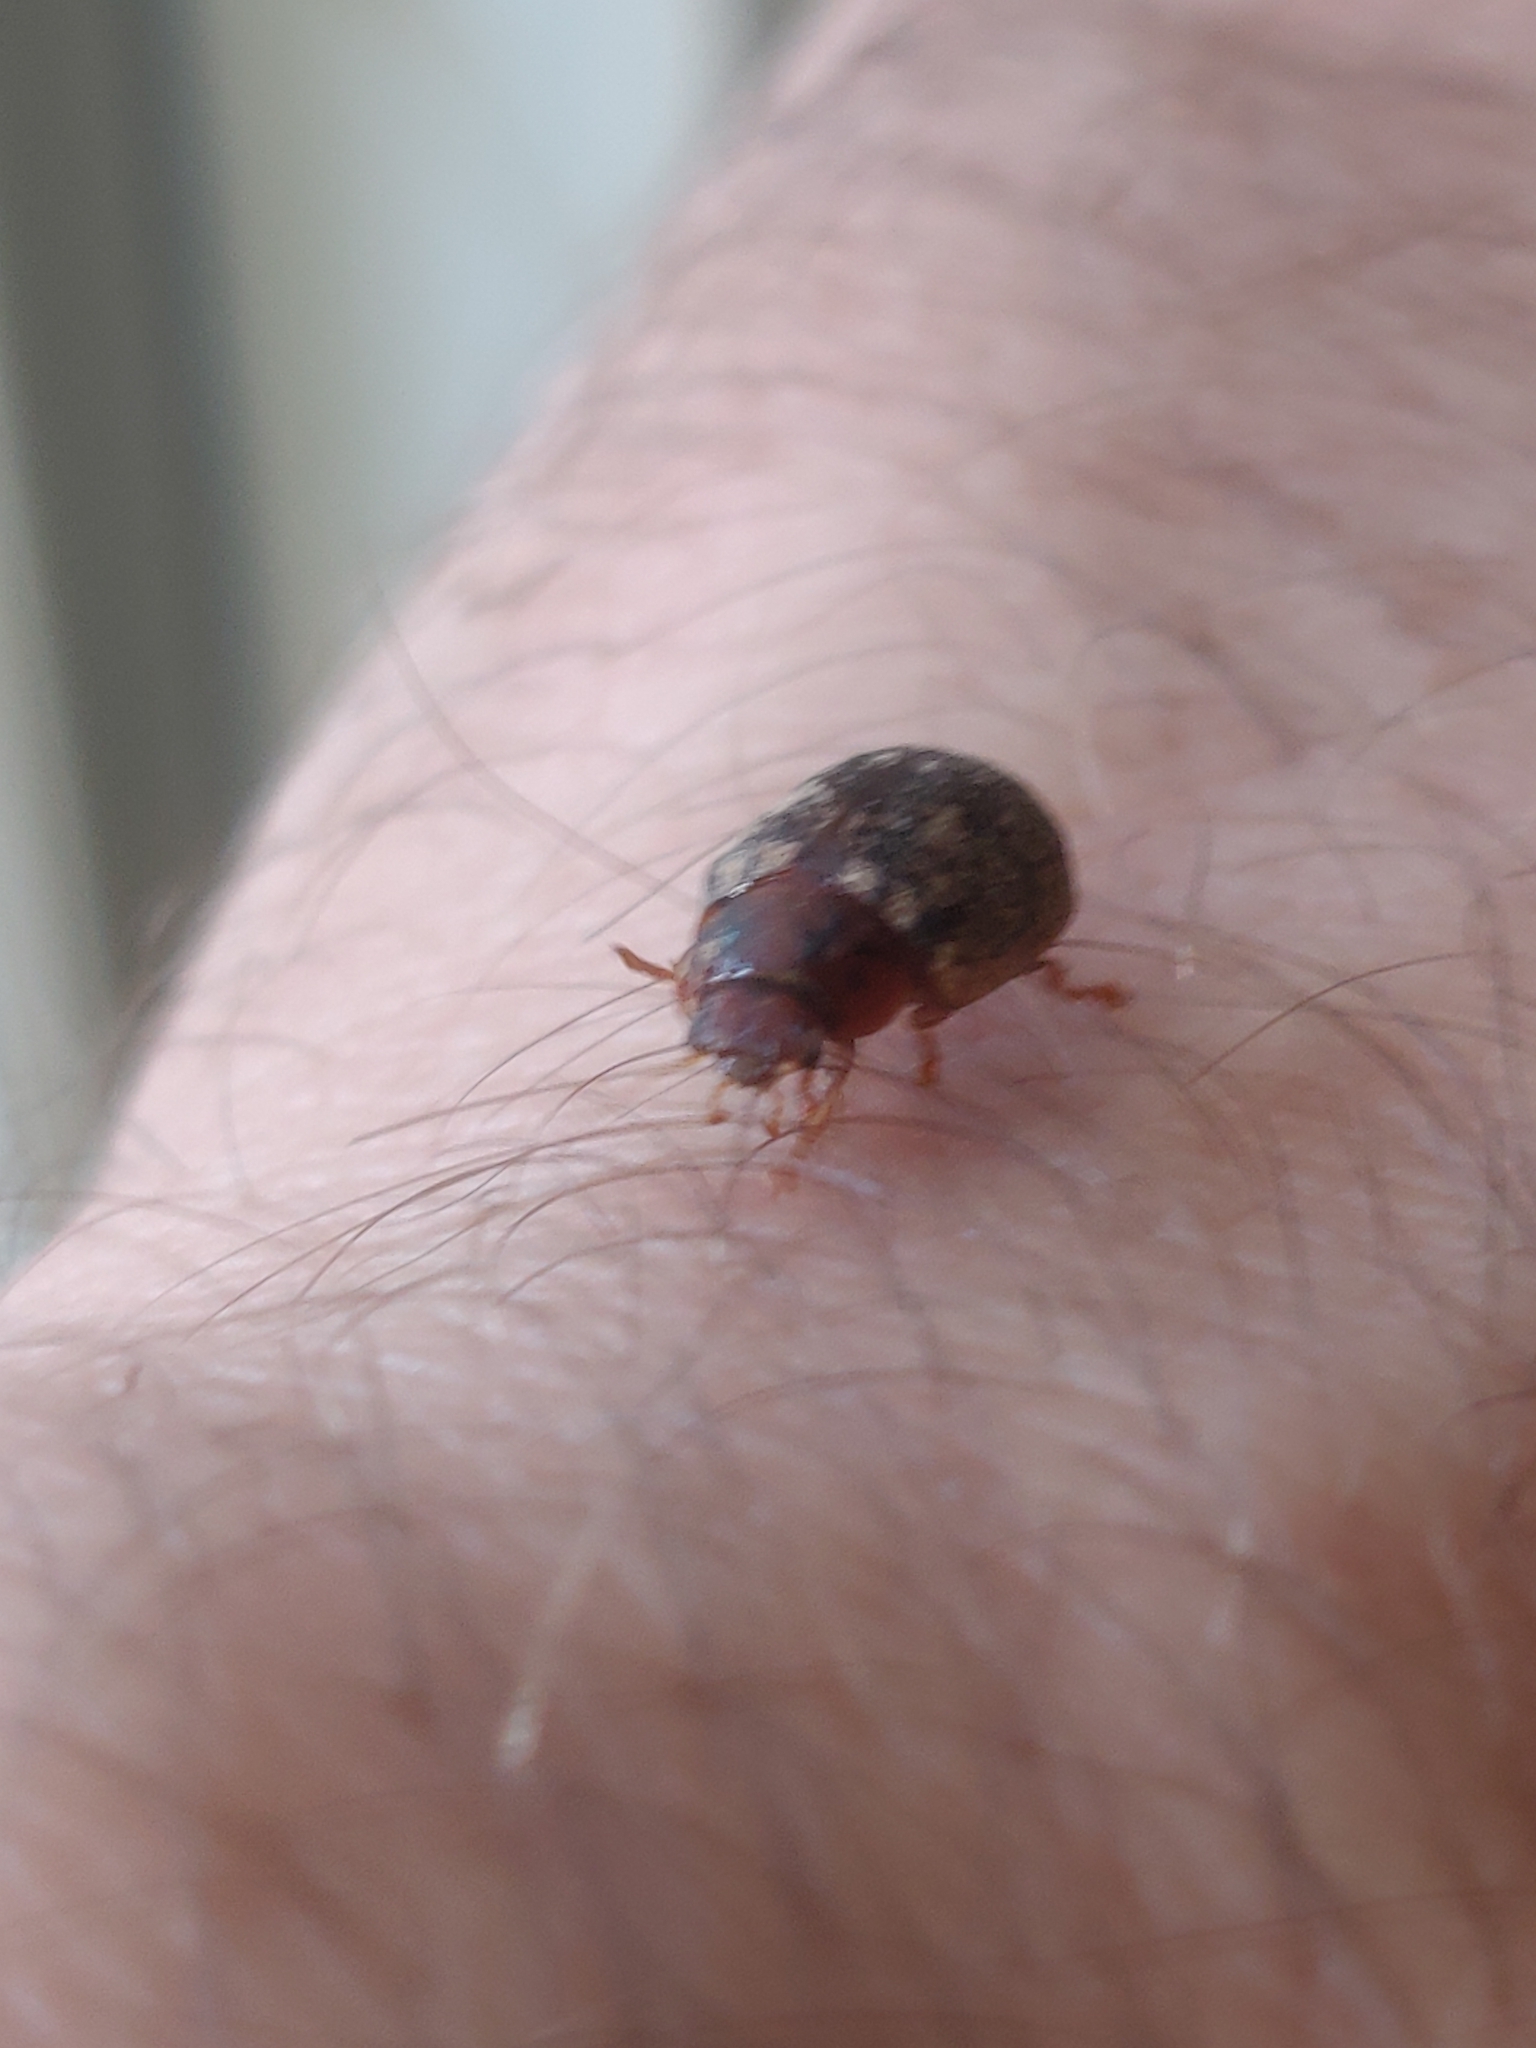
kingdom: Animalia
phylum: Arthropoda
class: Insecta
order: Coleoptera
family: Chrysomelidae
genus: Trachymela
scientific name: Trachymela sloanei
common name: Australian tortoise beetle
